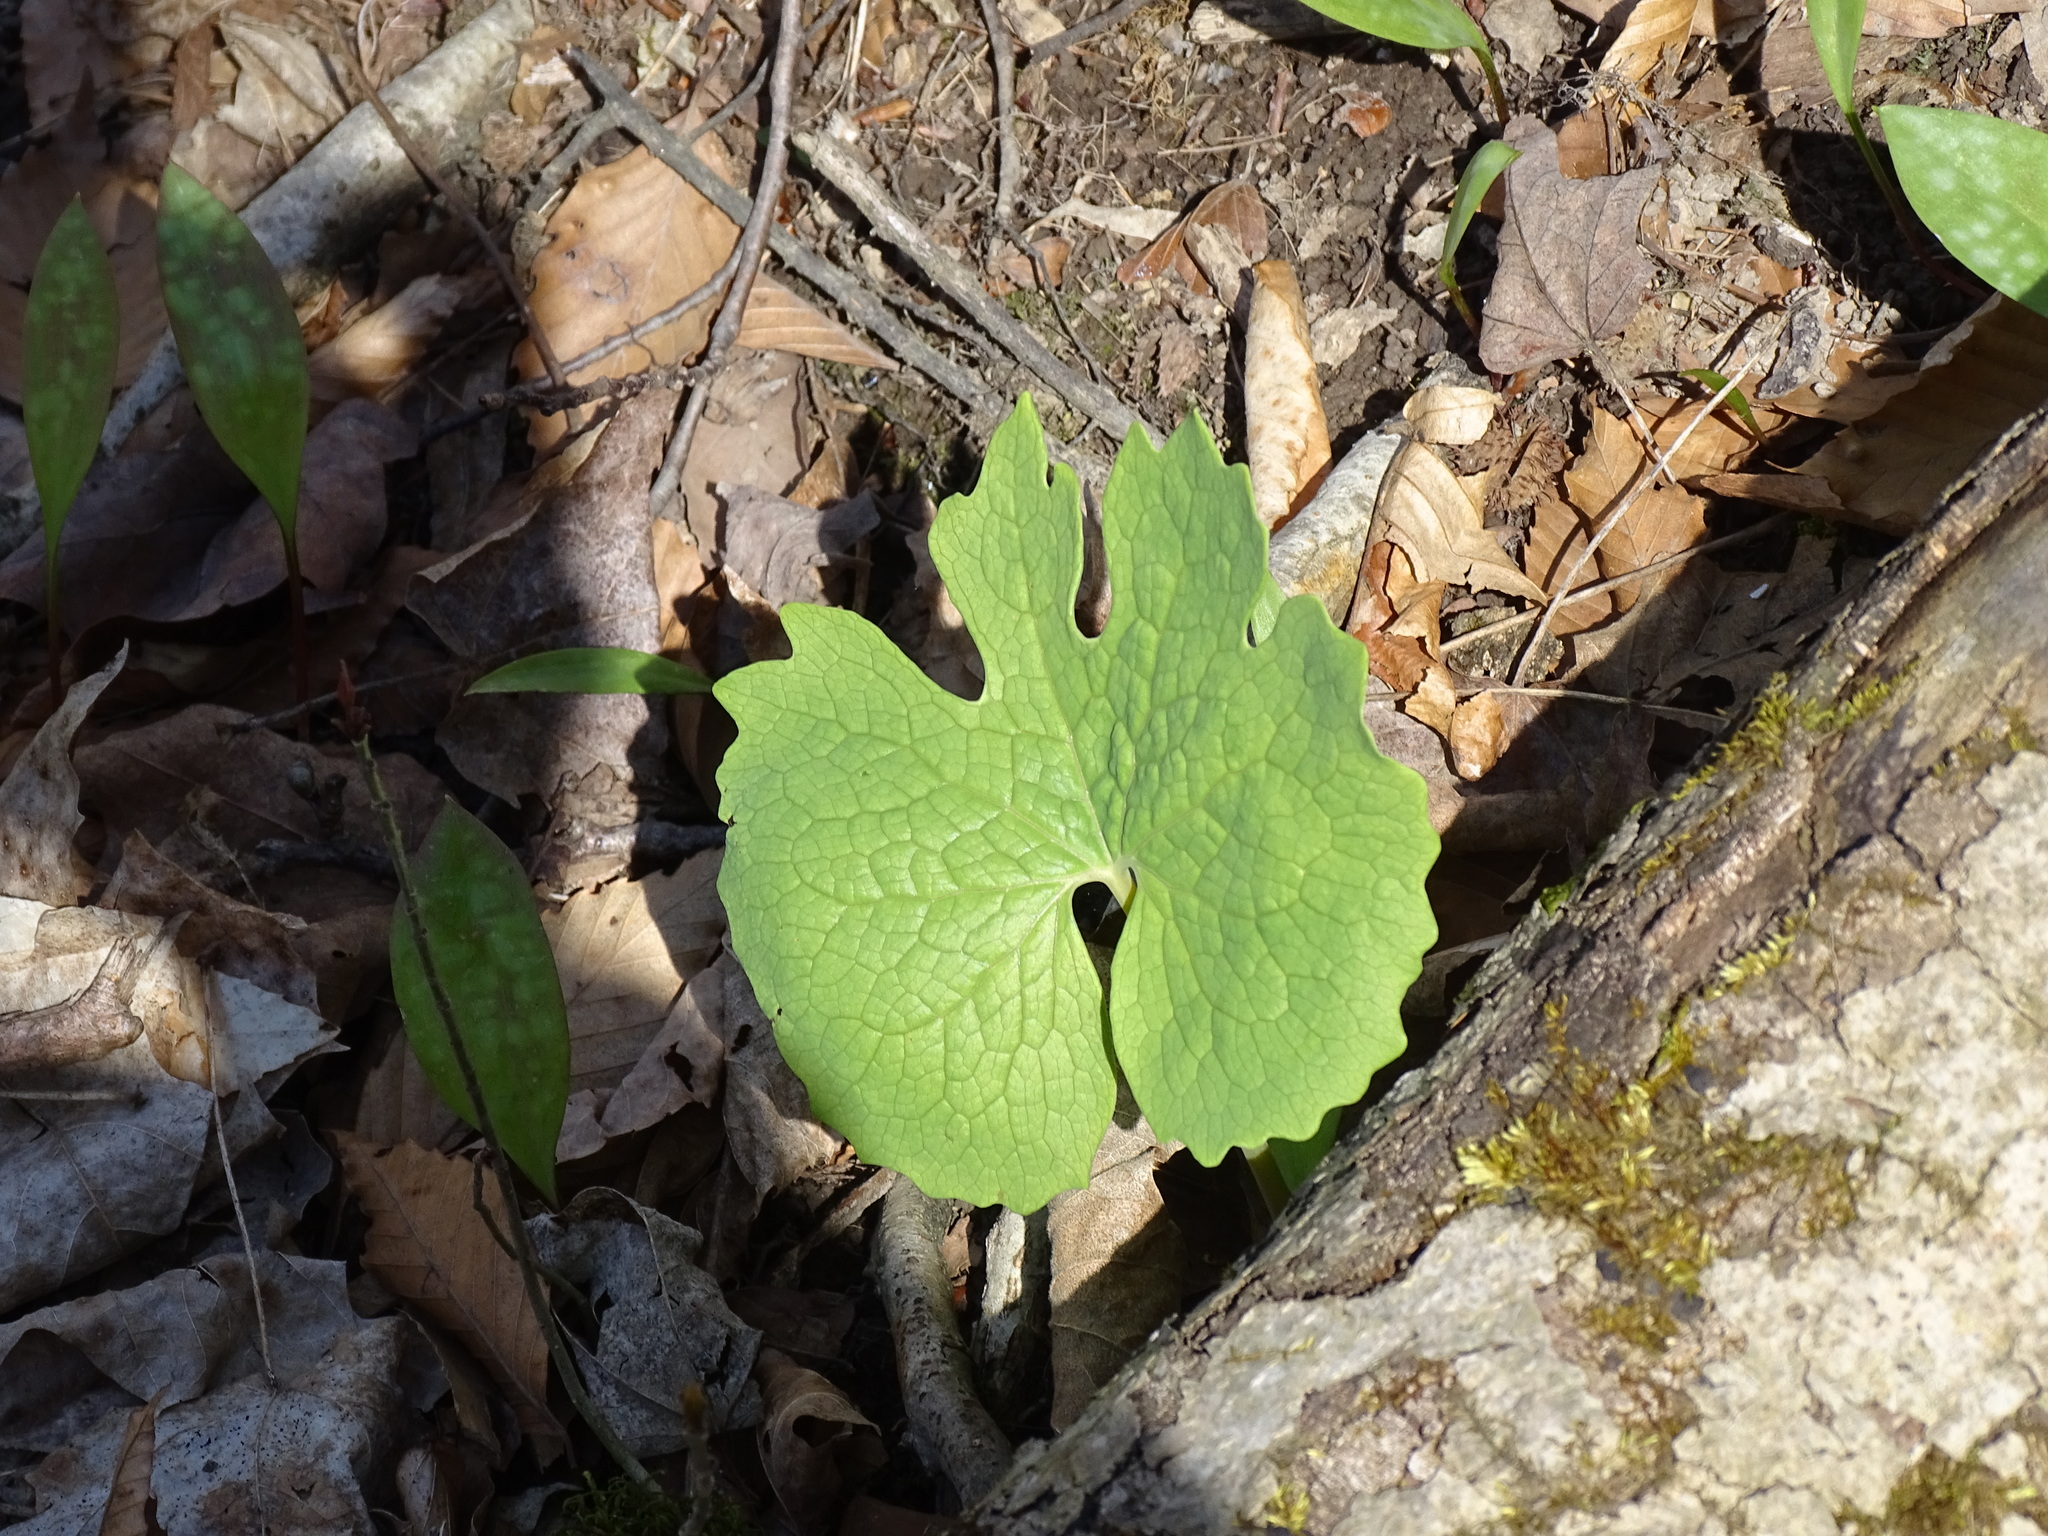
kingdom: Plantae
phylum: Tracheophyta
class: Magnoliopsida
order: Ranunculales
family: Papaveraceae
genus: Sanguinaria
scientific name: Sanguinaria canadensis
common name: Bloodroot
